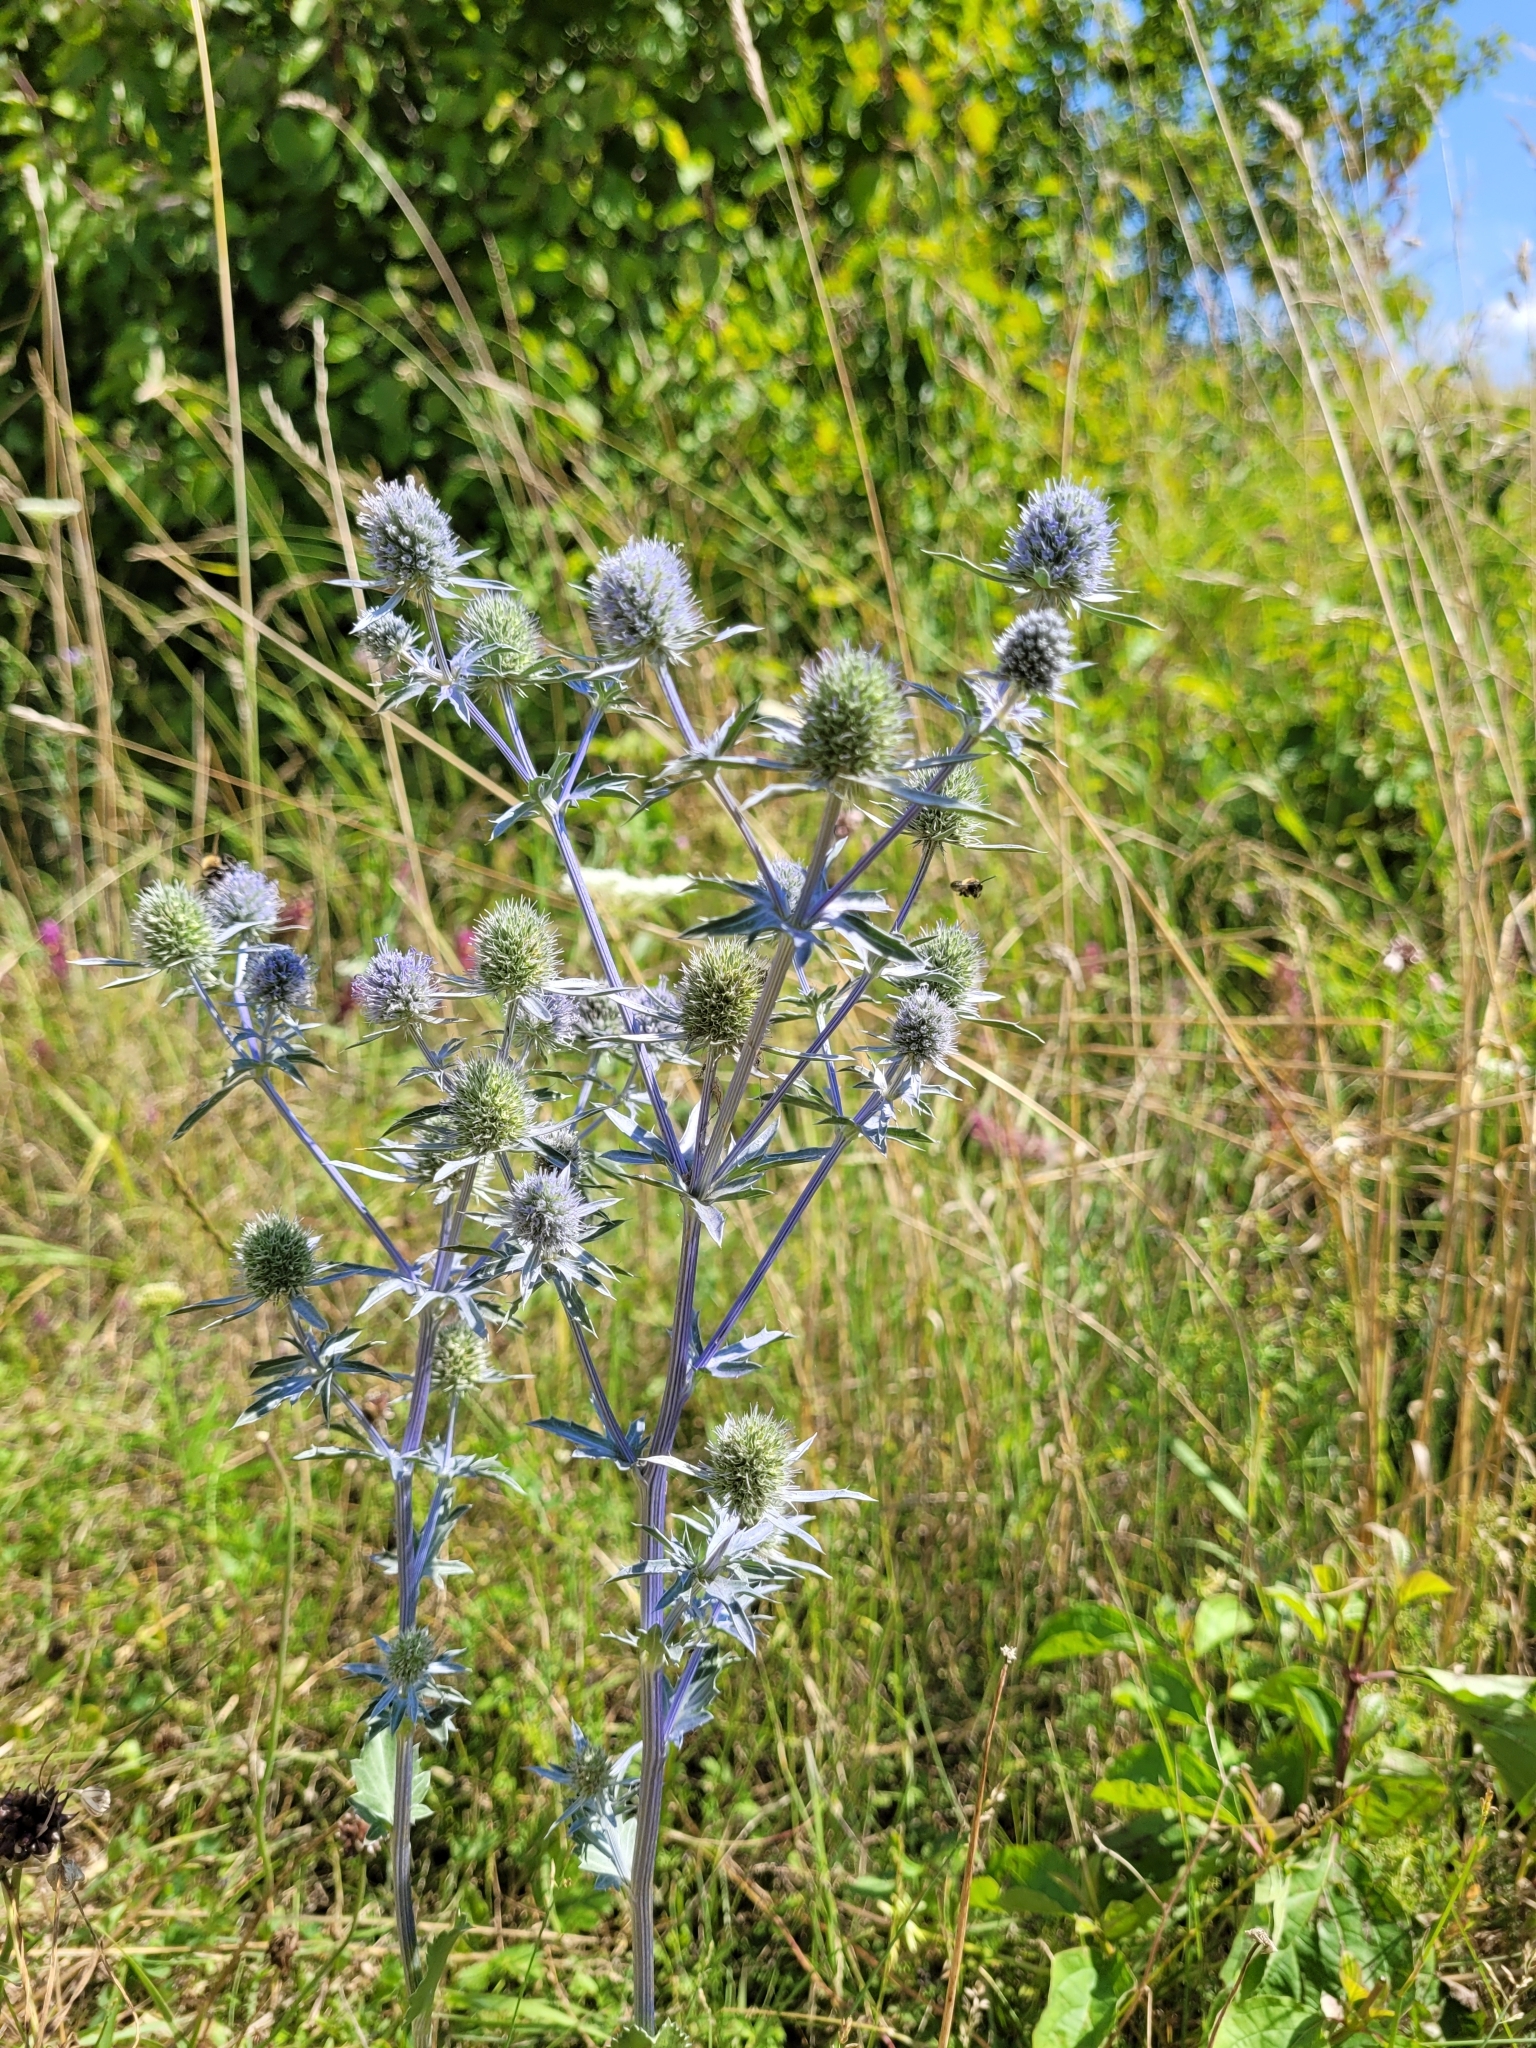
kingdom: Plantae
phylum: Tracheophyta
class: Magnoliopsida
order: Apiales
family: Apiaceae
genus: Eryngium
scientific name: Eryngium planum
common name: Blue eryngo
